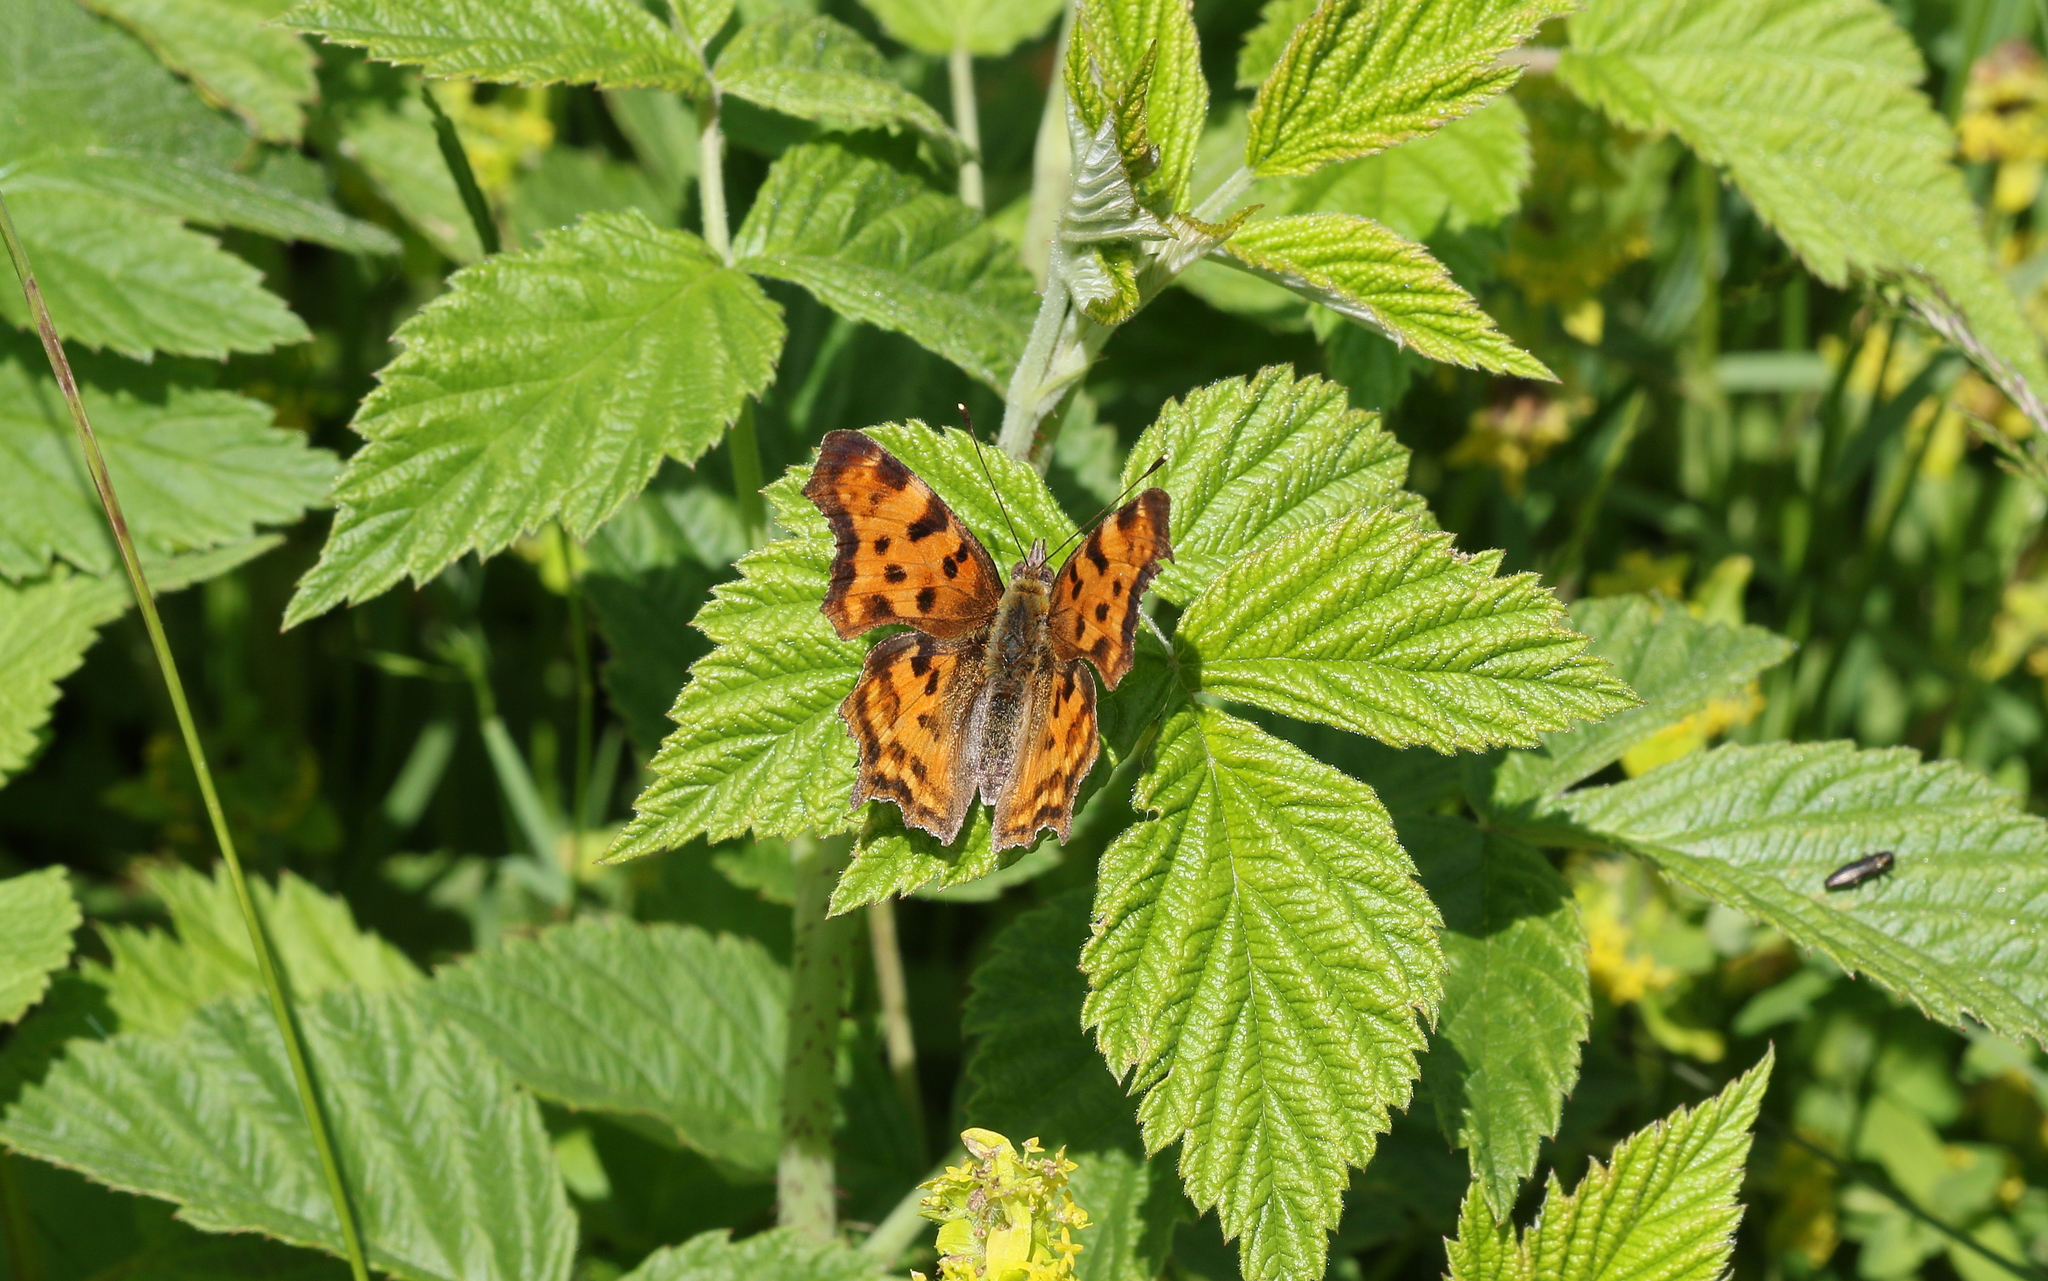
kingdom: Animalia
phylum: Arthropoda
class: Insecta
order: Lepidoptera
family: Nymphalidae
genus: Polygonia
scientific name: Polygonia c-album
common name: Comma
